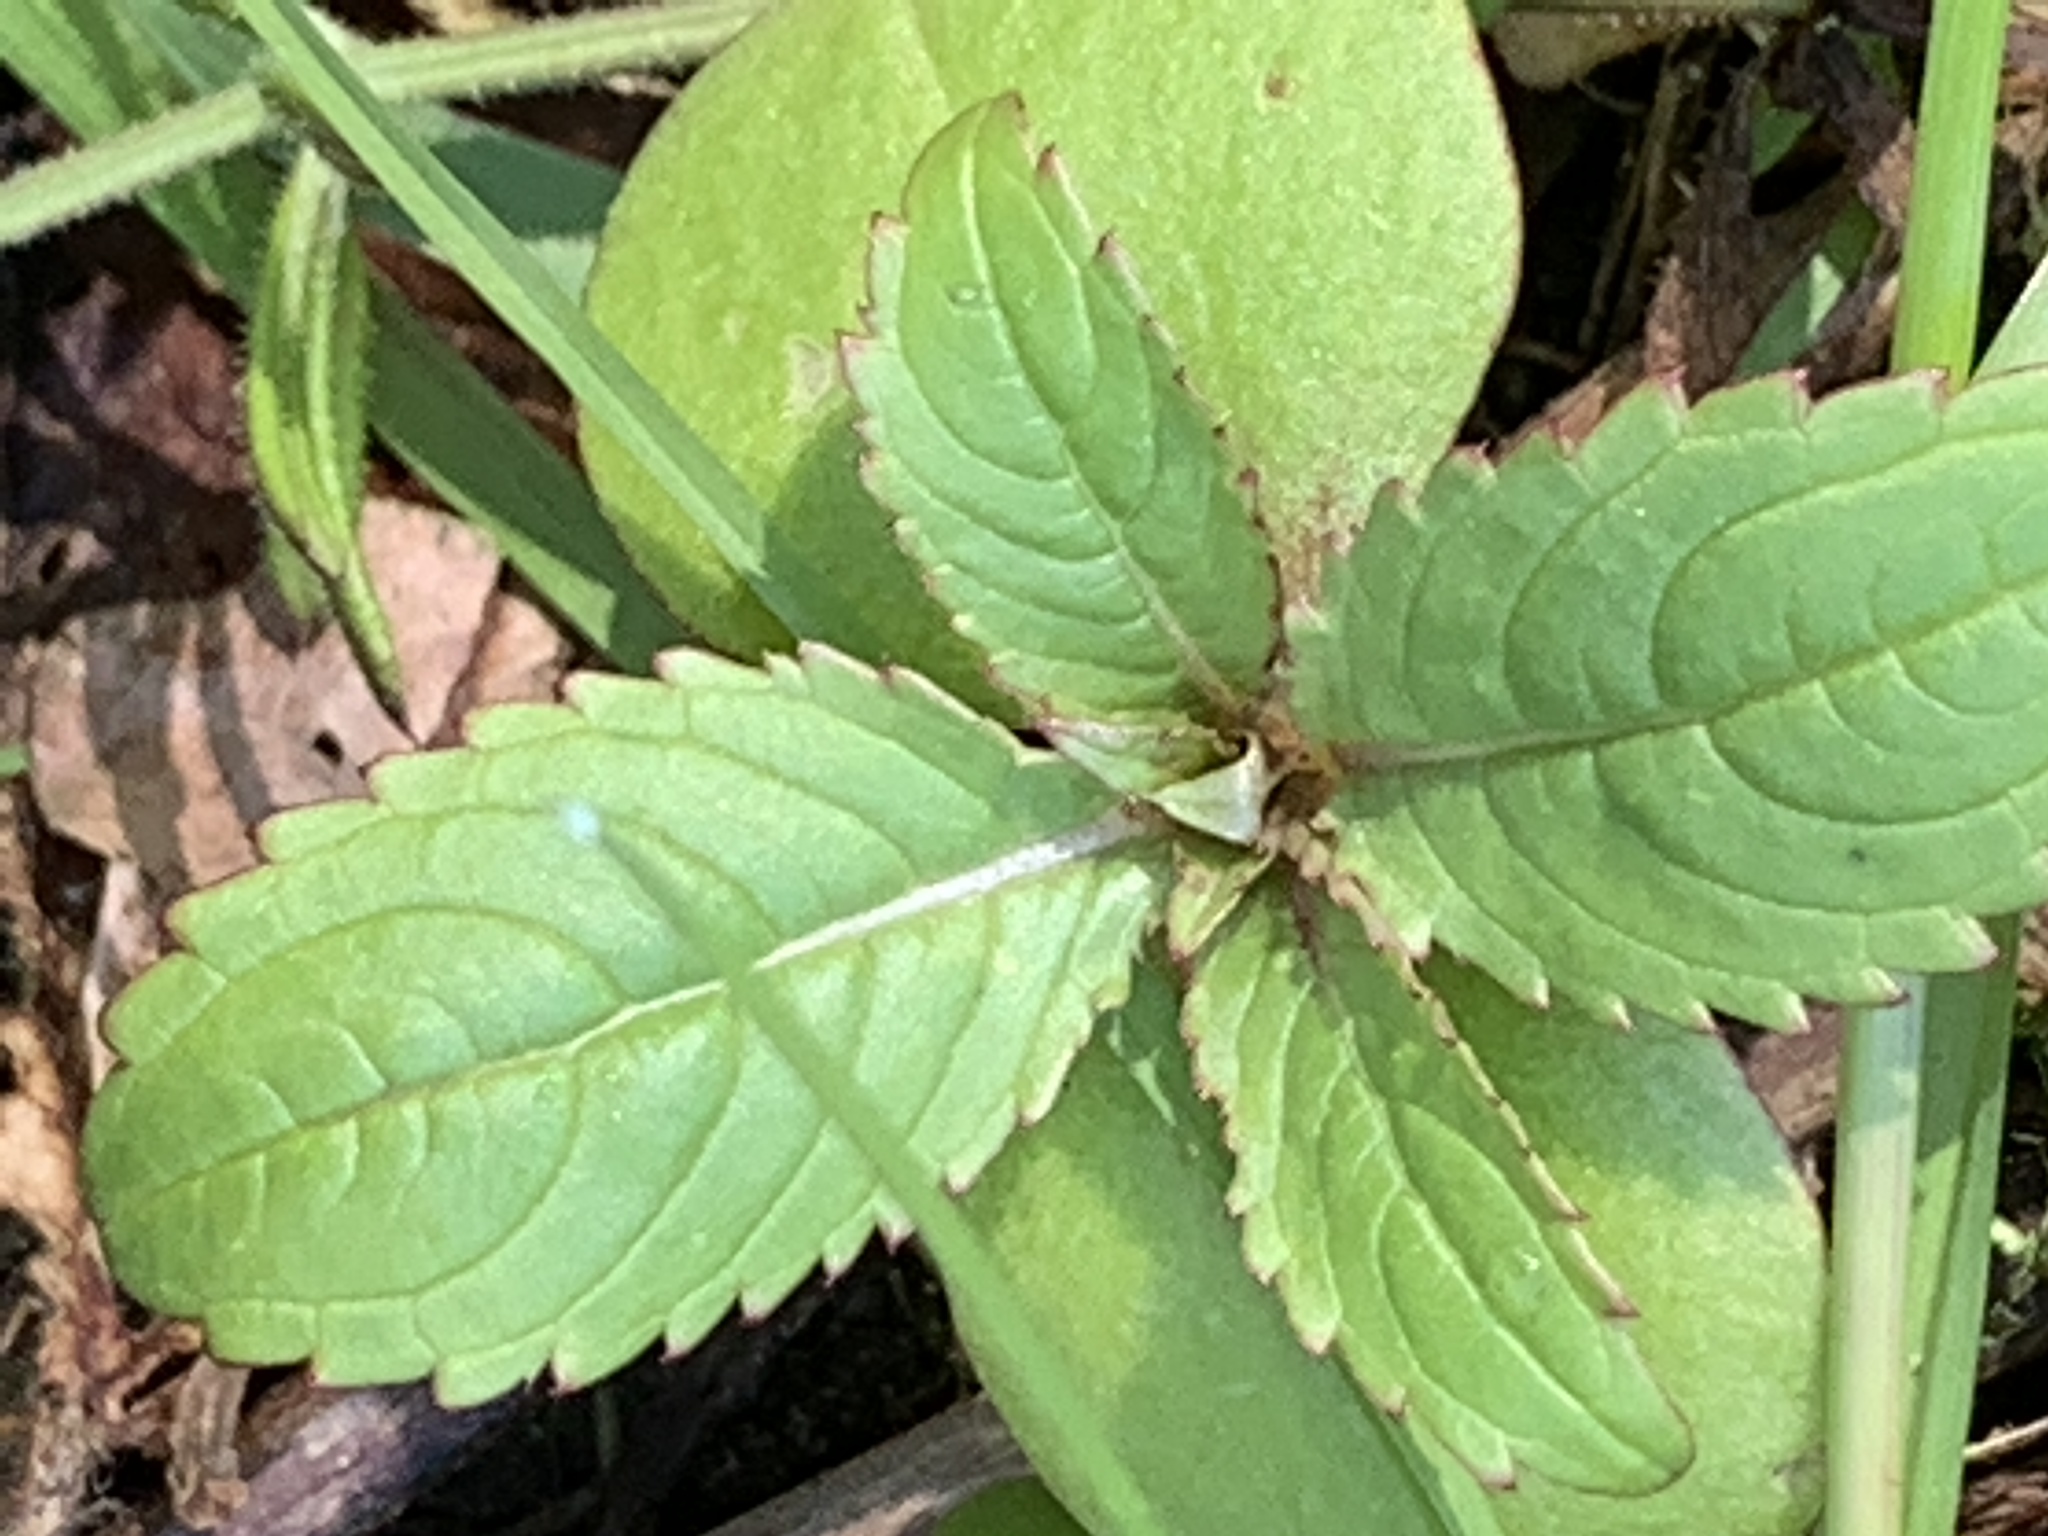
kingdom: Plantae
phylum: Tracheophyta
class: Magnoliopsida
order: Ericales
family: Balsaminaceae
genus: Impatiens
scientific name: Impatiens glandulifera
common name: Himalayan balsam
